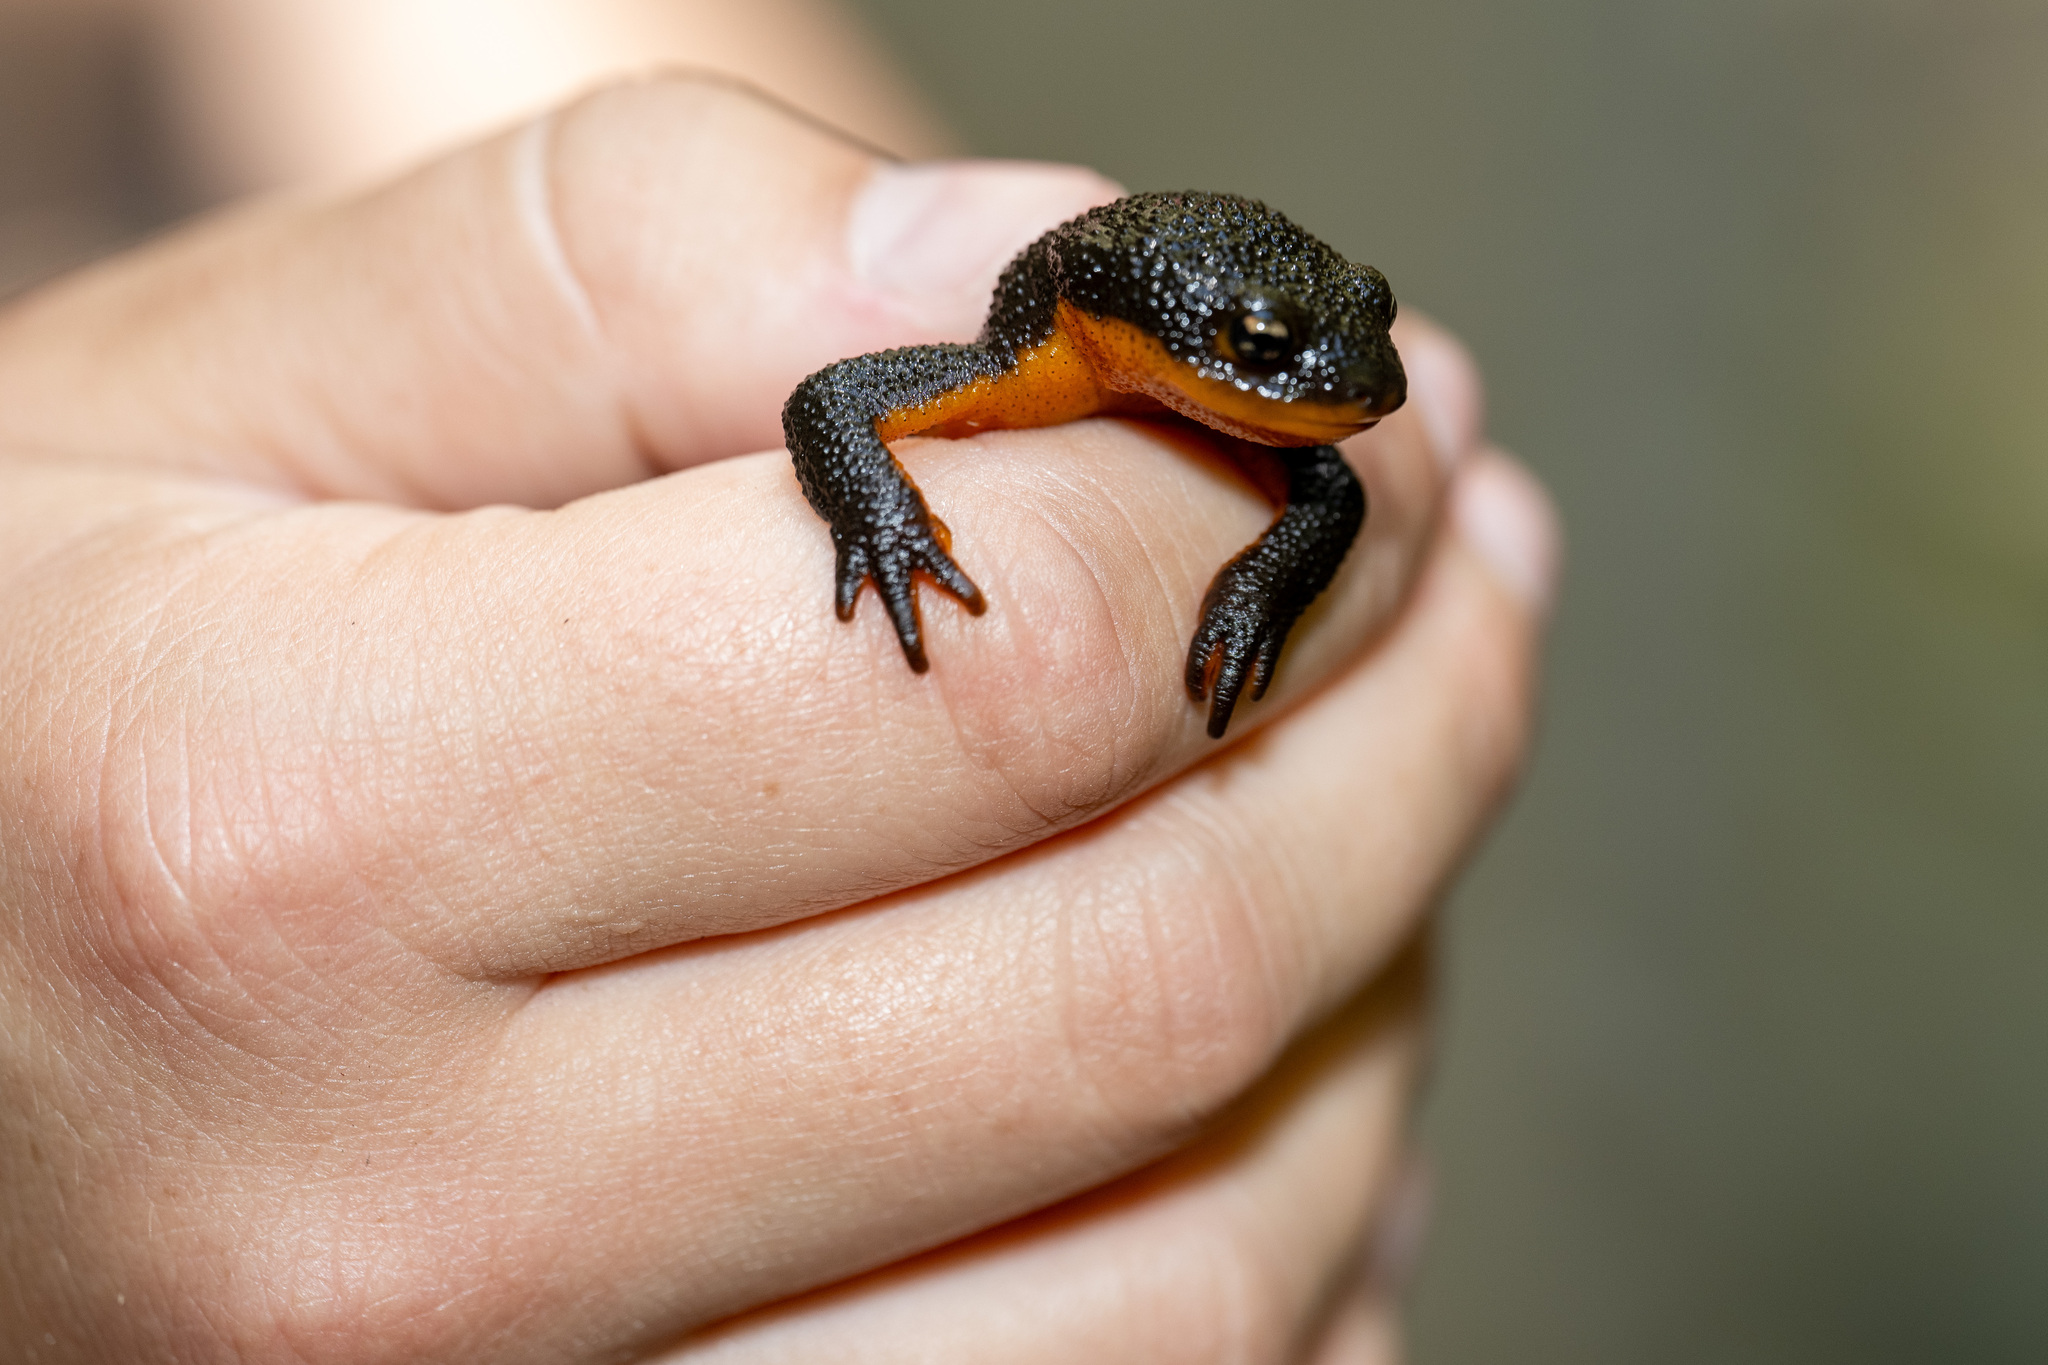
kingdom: Animalia
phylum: Chordata
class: Amphibia
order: Caudata
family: Salamandridae
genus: Taricha
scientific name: Taricha granulosa
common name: Roughskin newt
